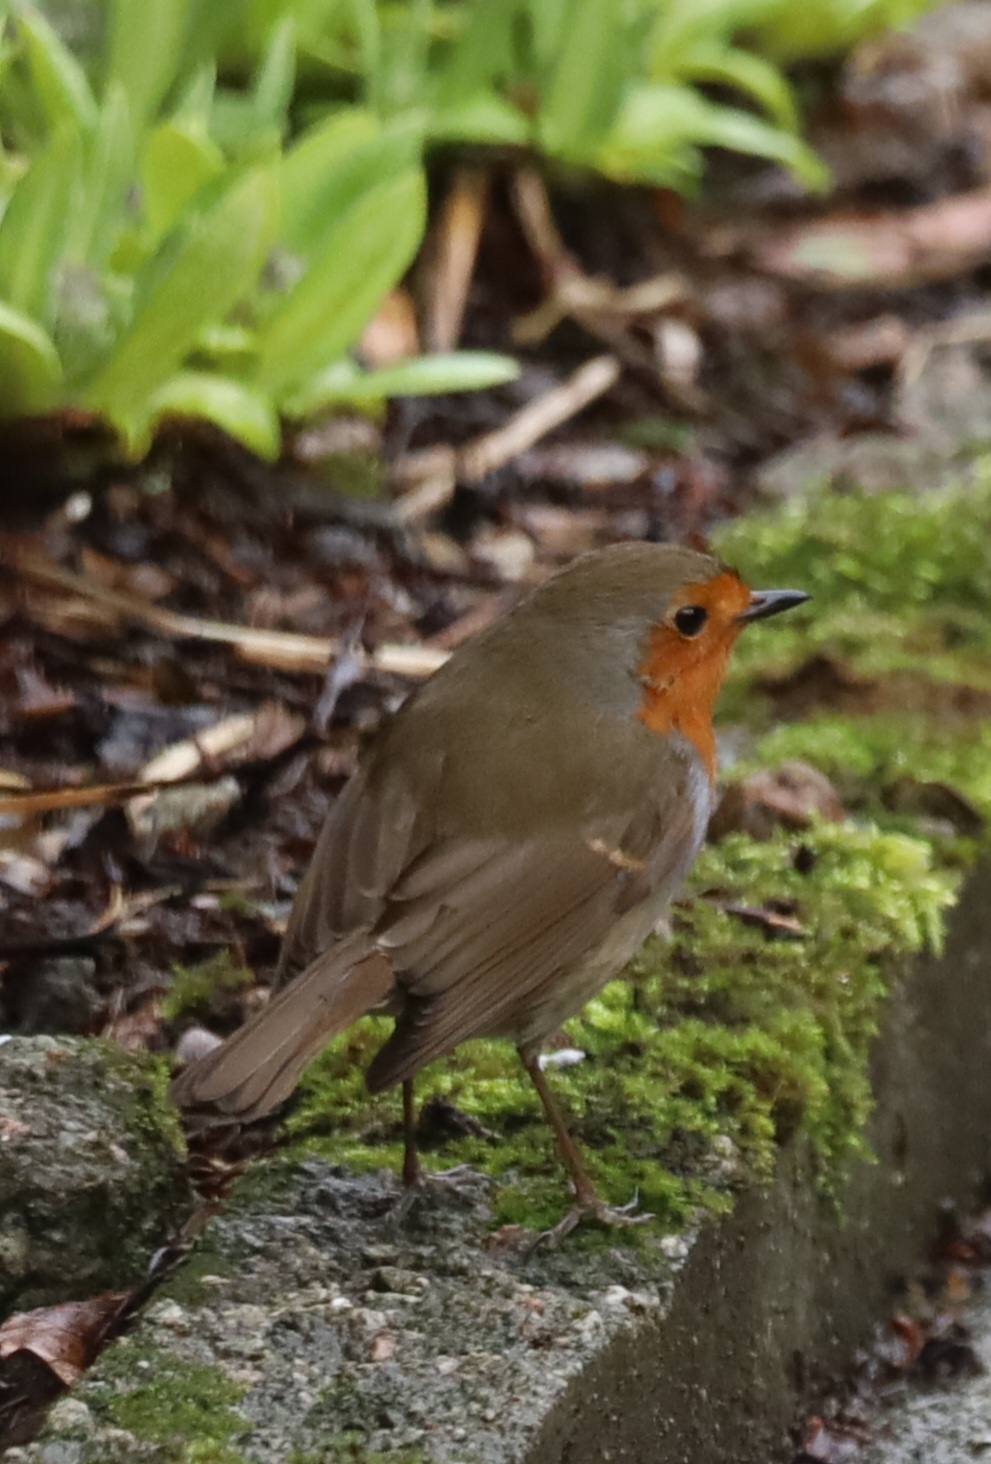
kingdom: Animalia
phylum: Chordata
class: Aves
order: Passeriformes
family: Muscicapidae
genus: Erithacus
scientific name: Erithacus rubecula
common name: European robin
